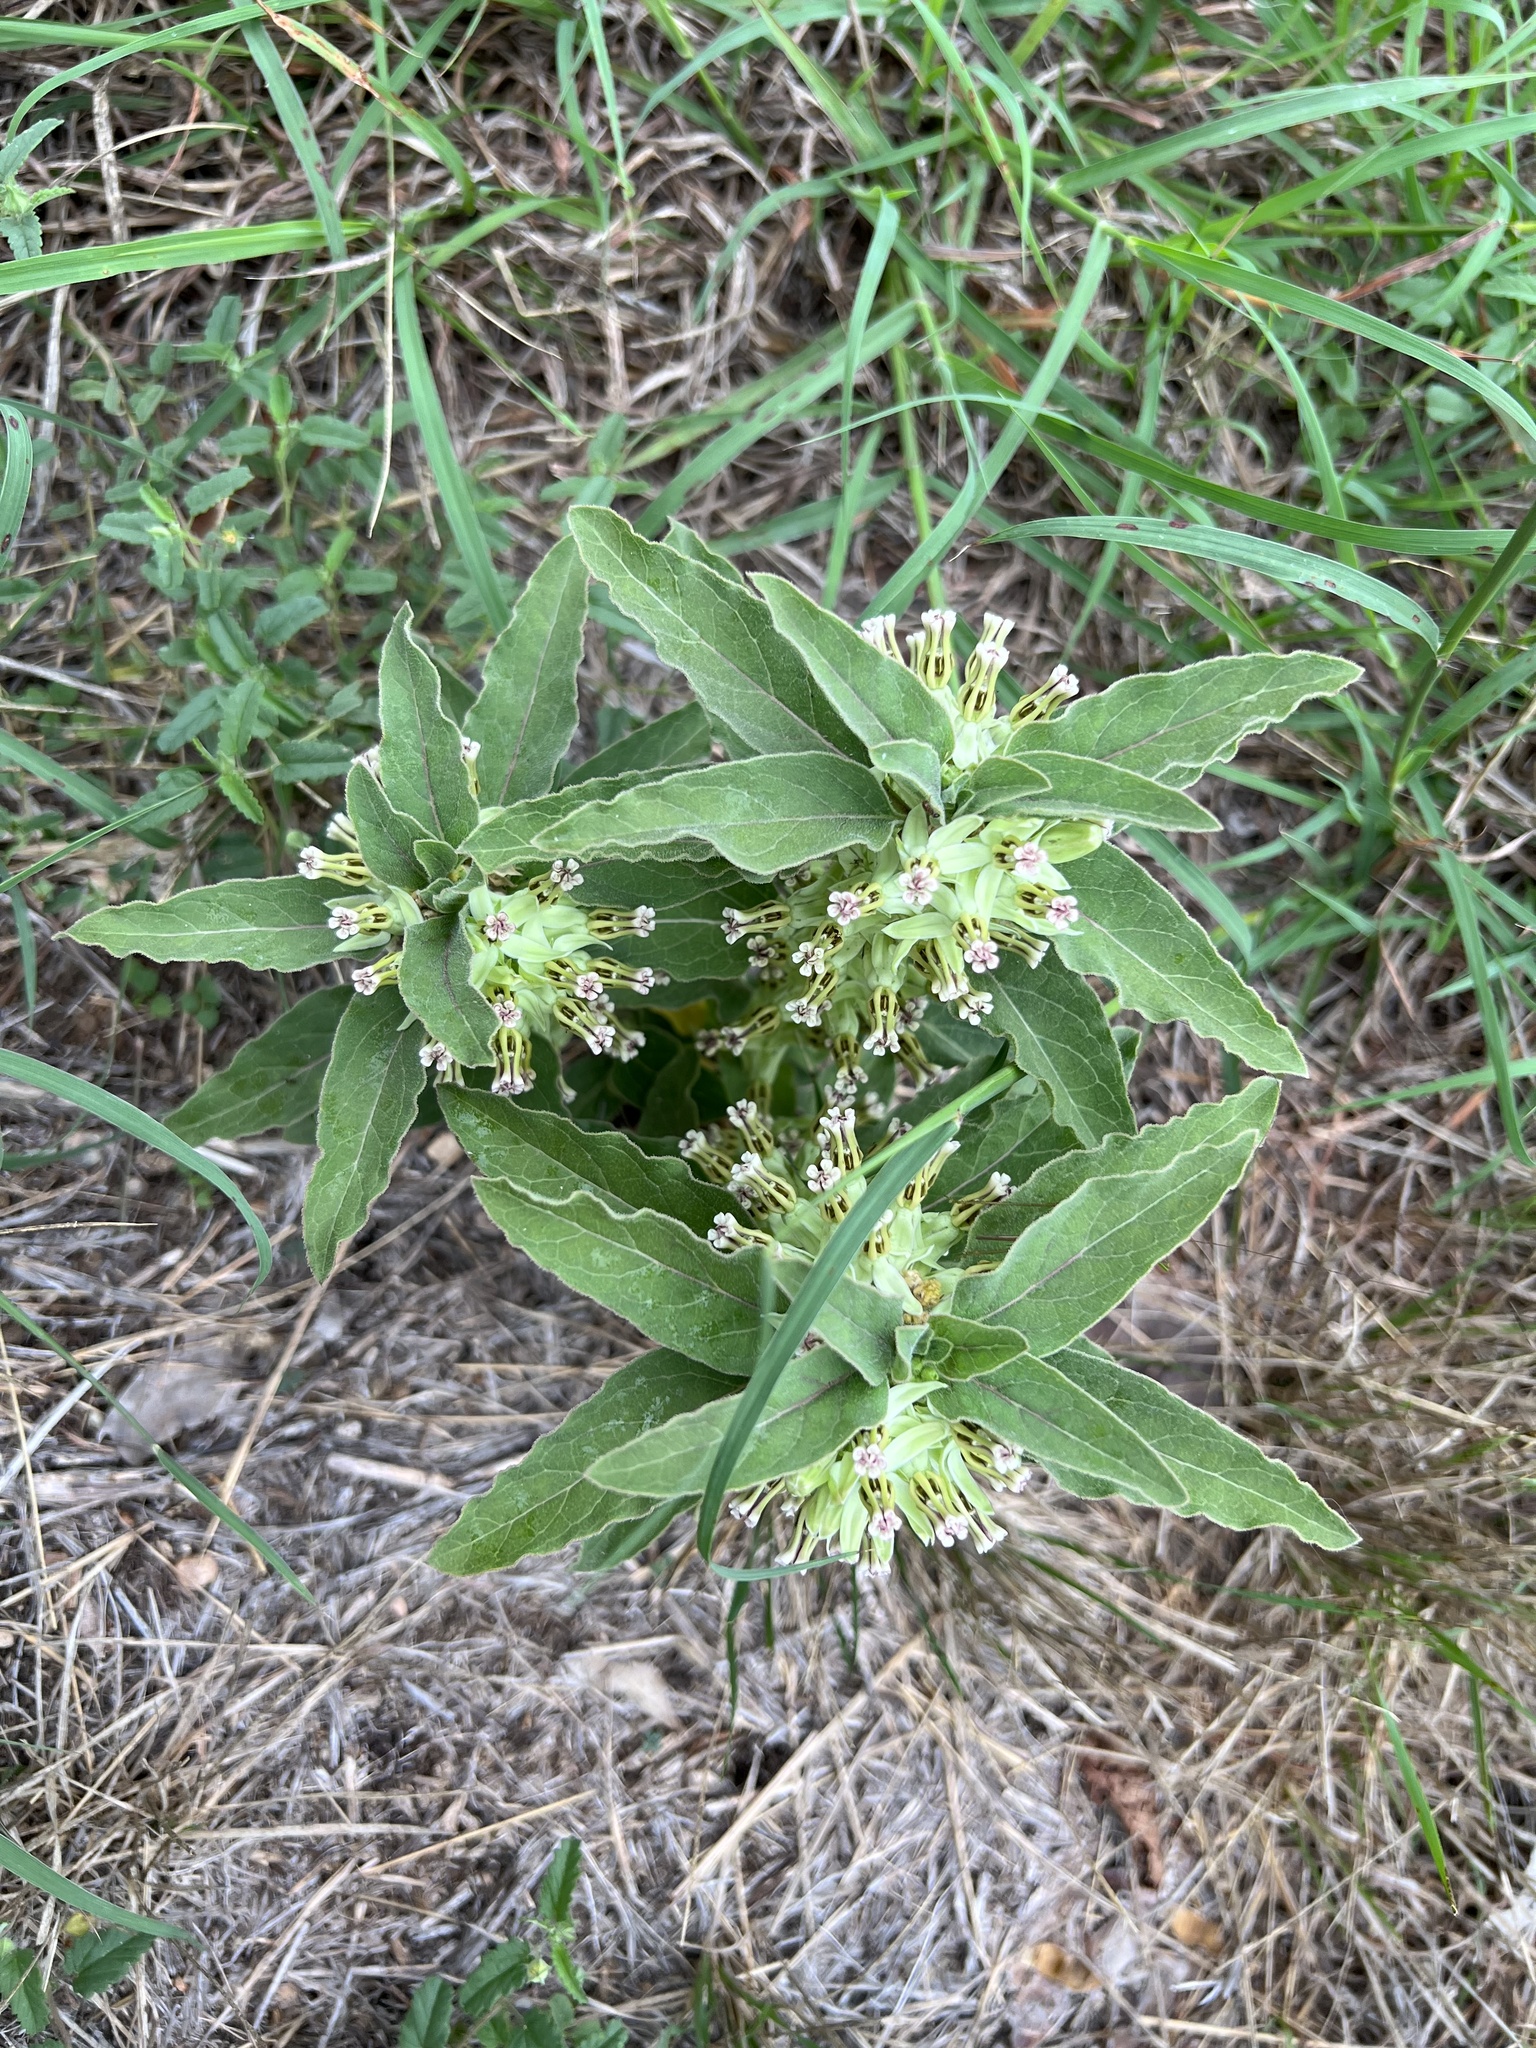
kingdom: Plantae
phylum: Tracheophyta
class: Magnoliopsida
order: Gentianales
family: Apocynaceae
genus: Asclepias
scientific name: Asclepias oenotheroides
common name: Zizotes milkweed
